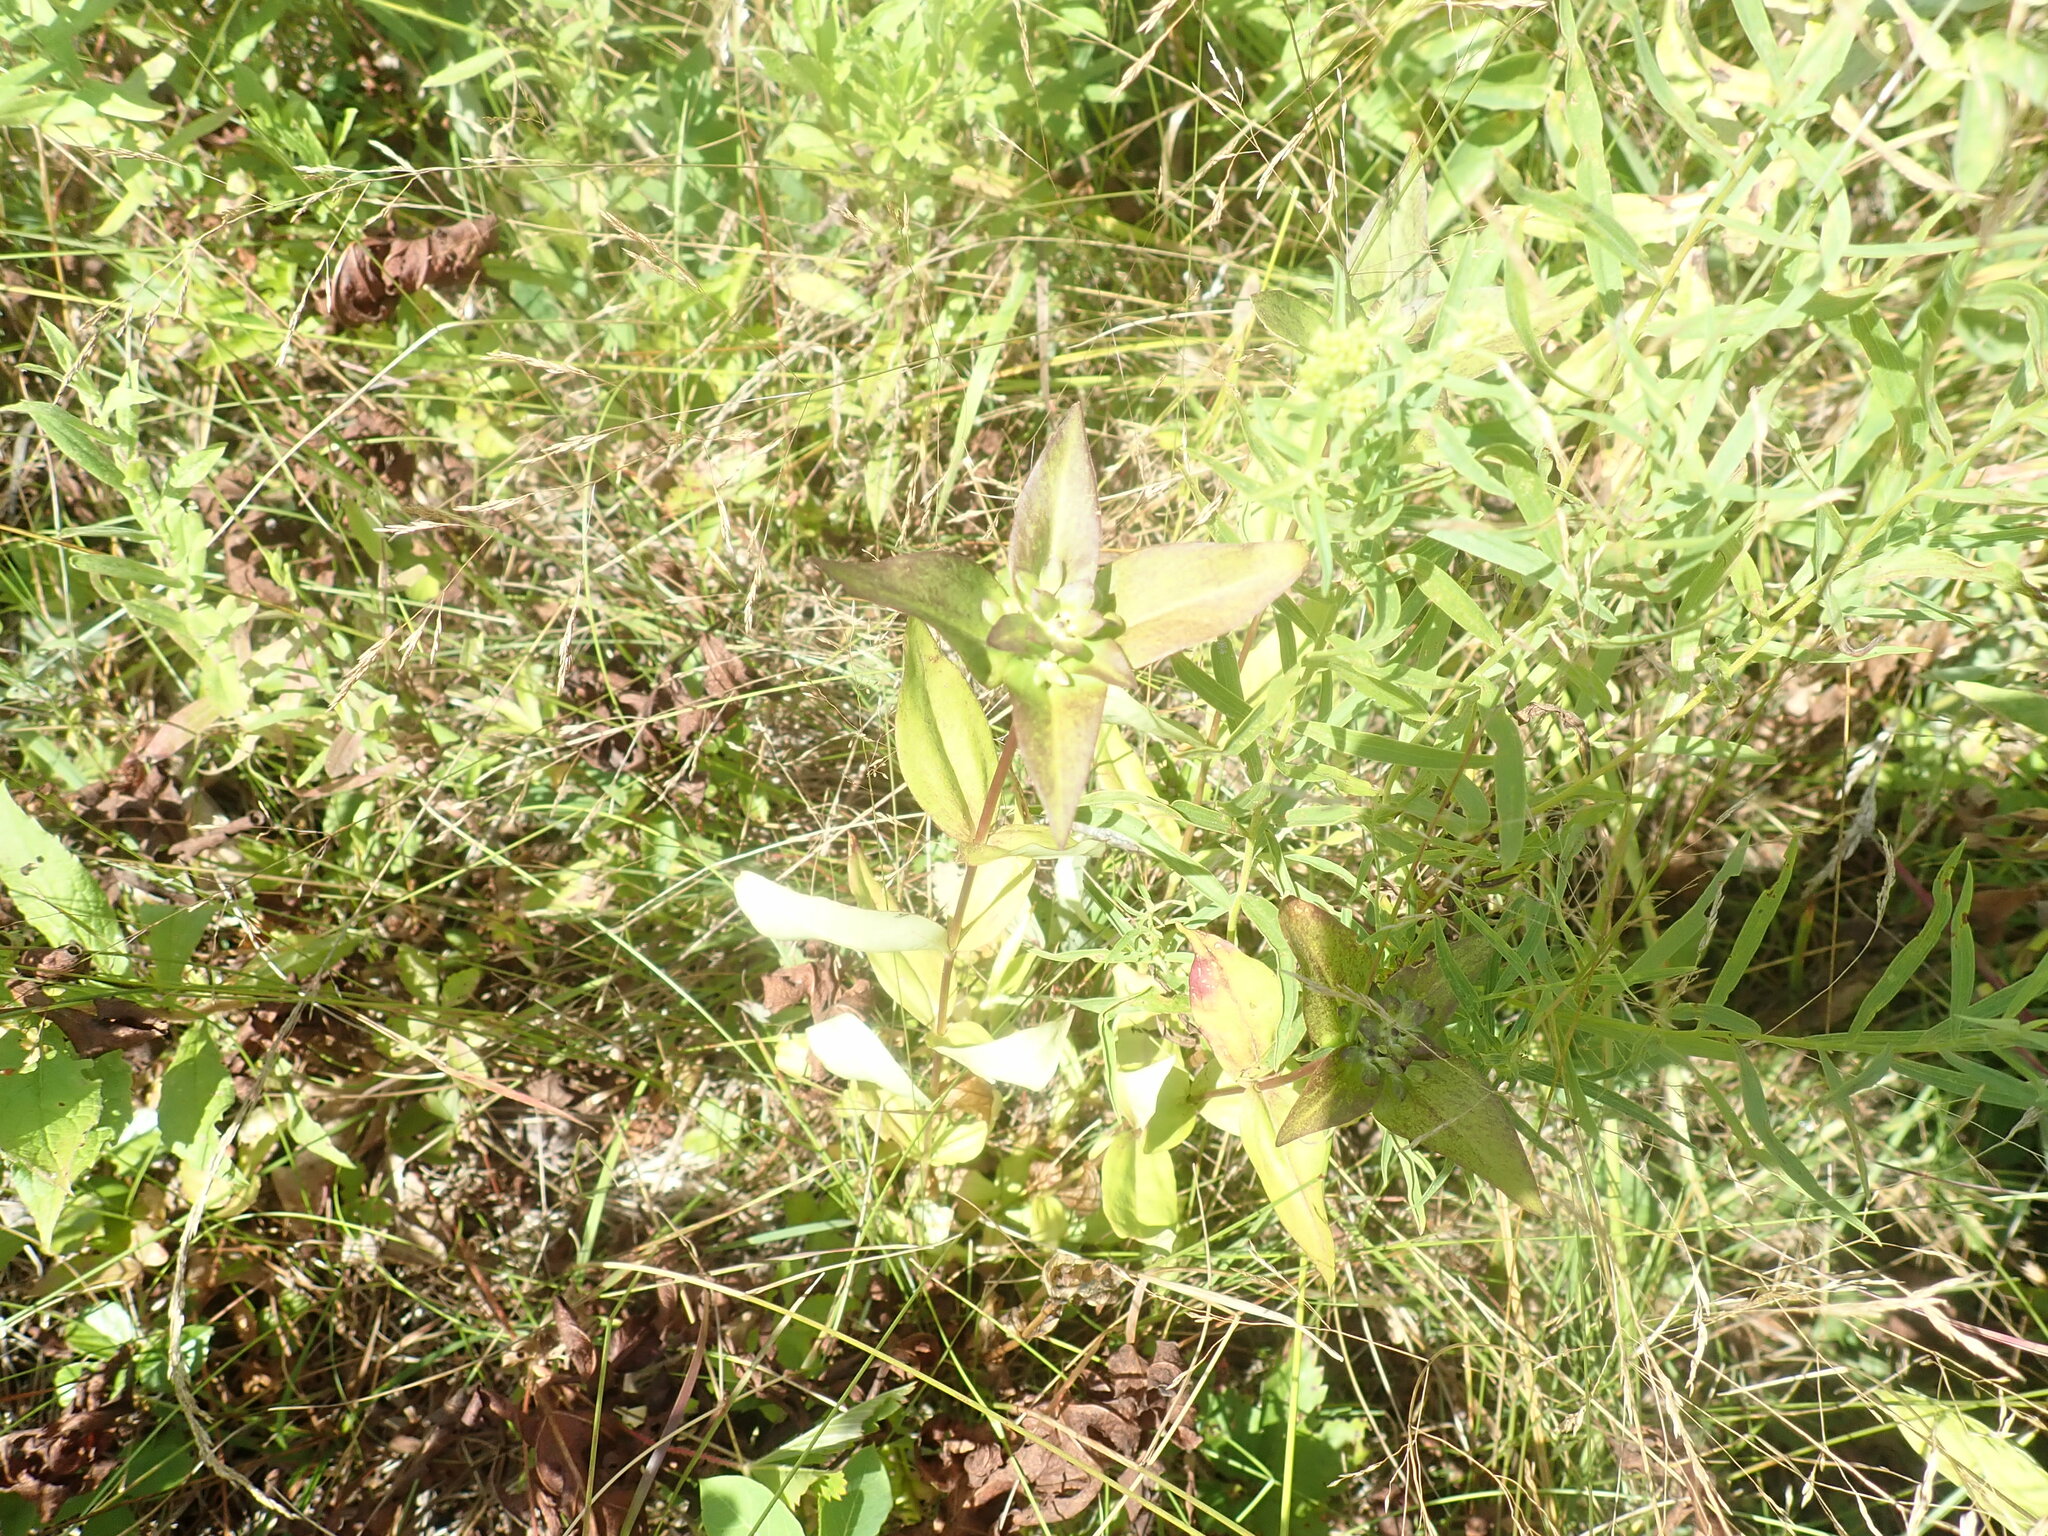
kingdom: Plantae
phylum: Tracheophyta
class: Magnoliopsida
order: Gentianales
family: Gentianaceae
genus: Gentiana
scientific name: Gentiana clausa
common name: Blind gentian
